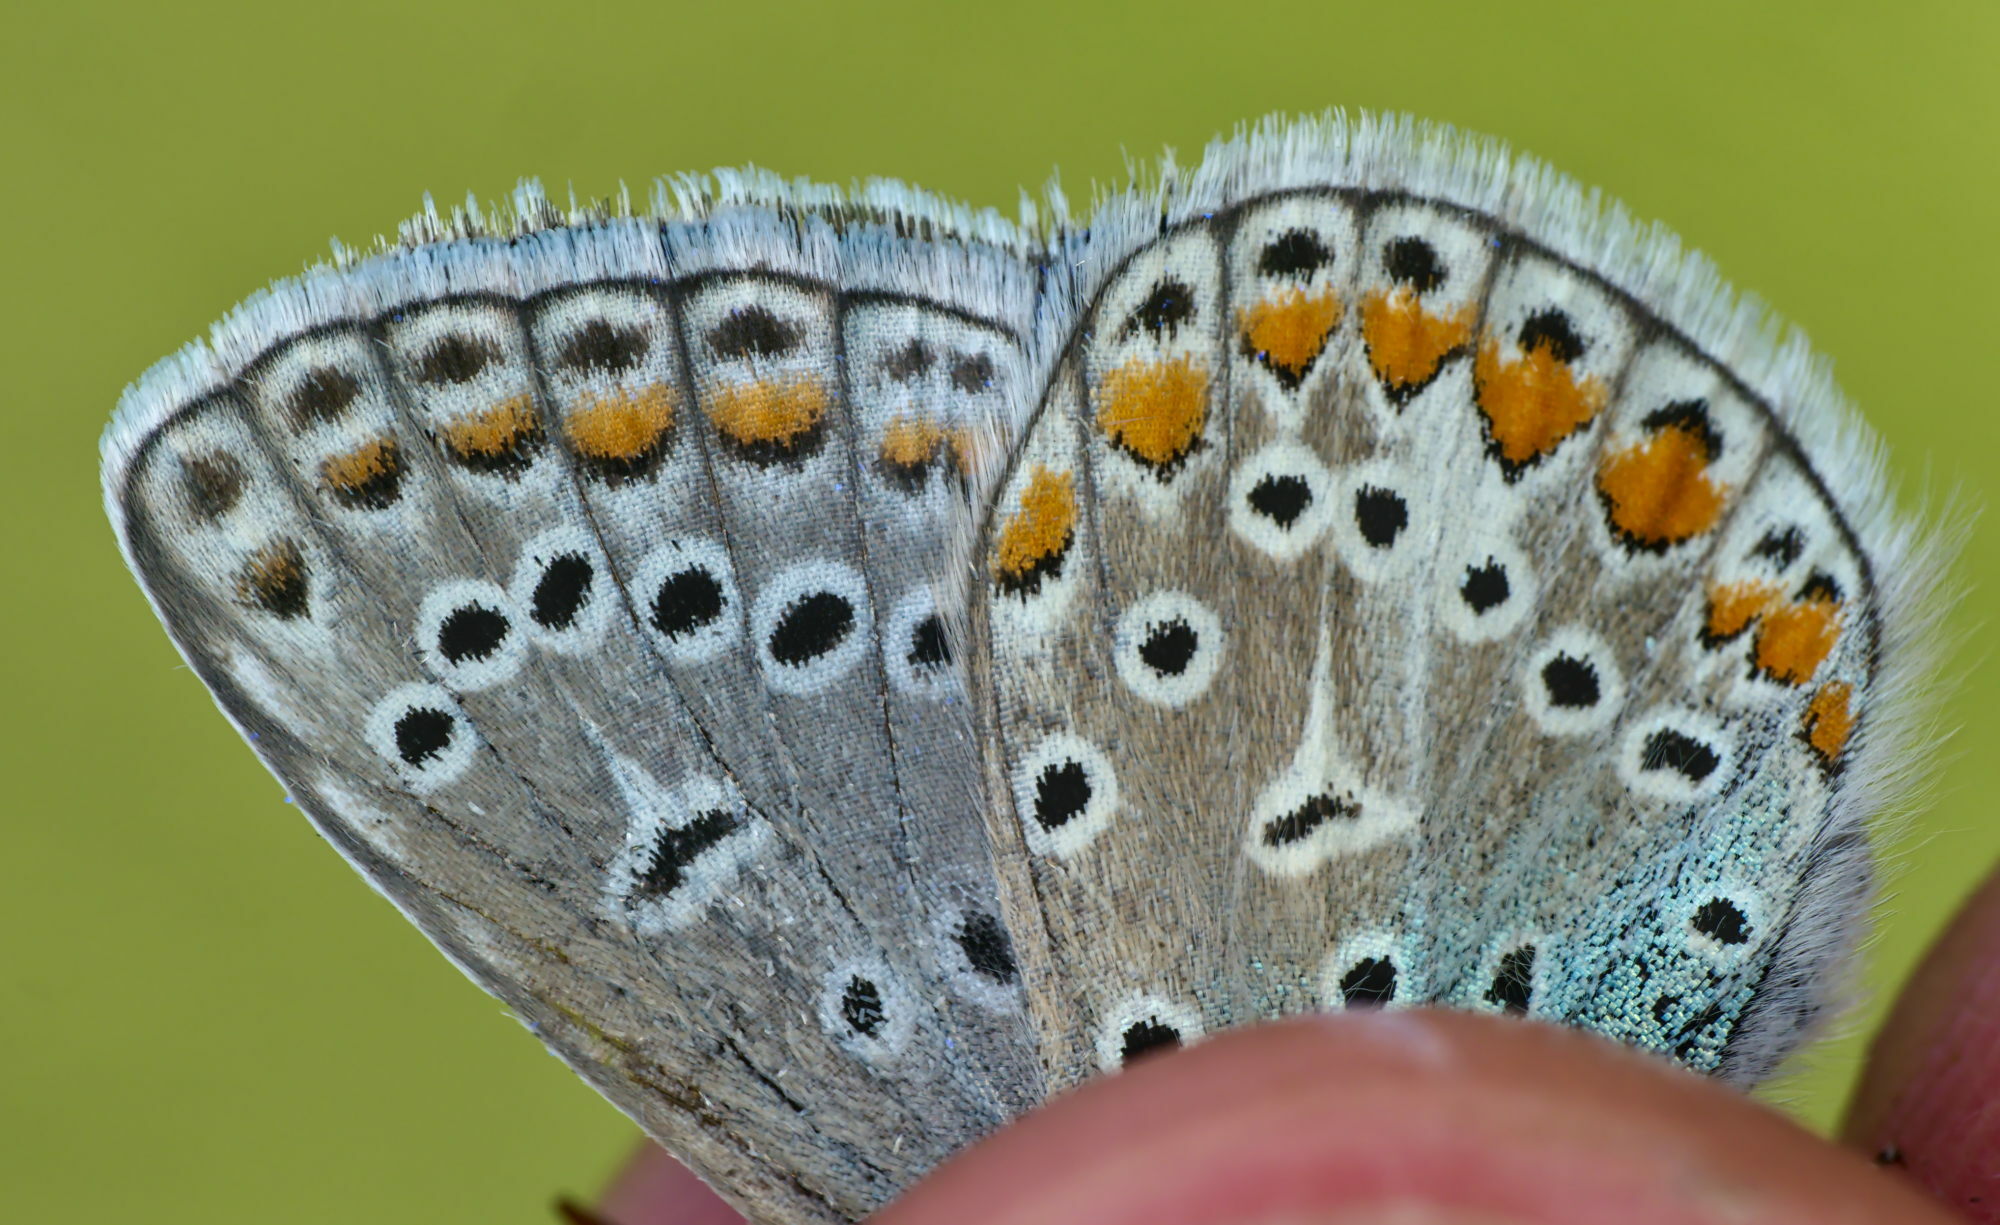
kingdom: Animalia
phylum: Arthropoda
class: Insecta
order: Lepidoptera
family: Lycaenidae
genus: Polyommatus
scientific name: Polyommatus icarus
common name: Common blue
